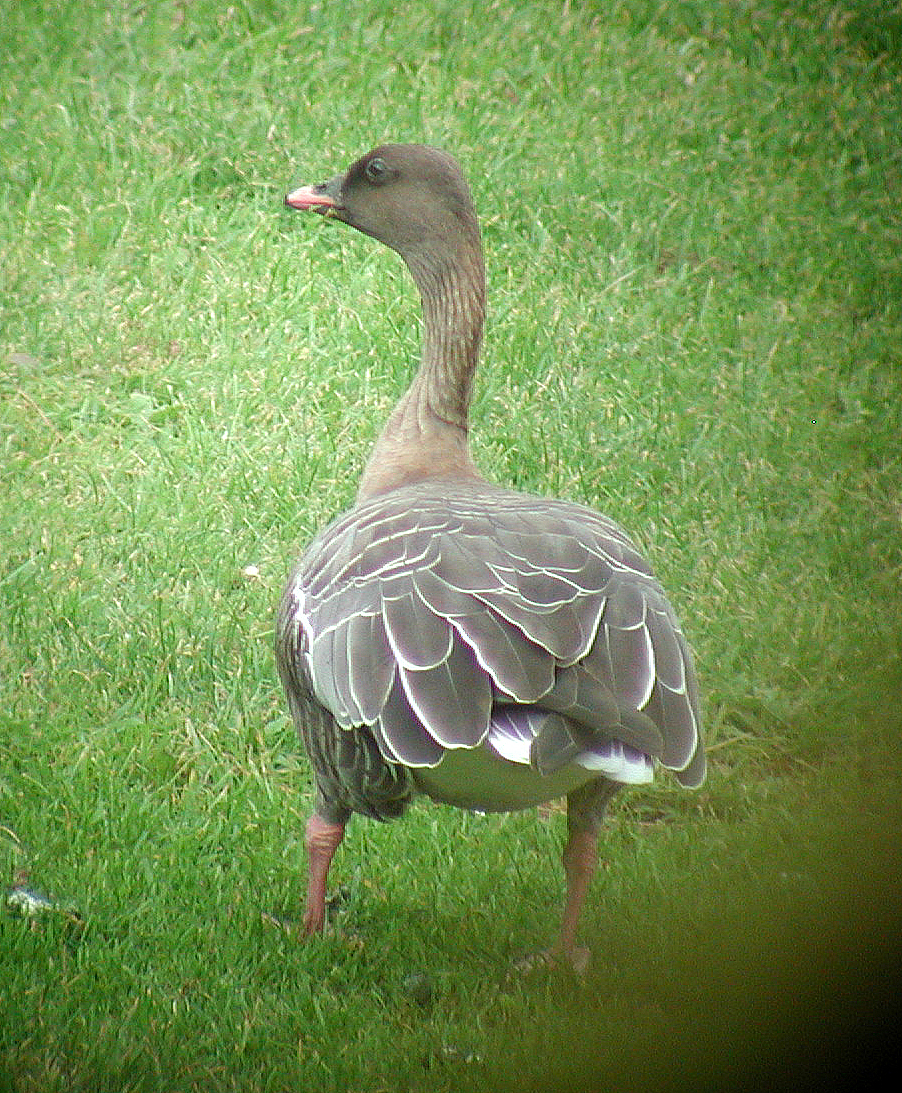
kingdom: Animalia
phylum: Chordata
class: Aves
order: Anseriformes
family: Anatidae
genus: Anser
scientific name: Anser brachyrhynchus
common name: Pink-footed goose
